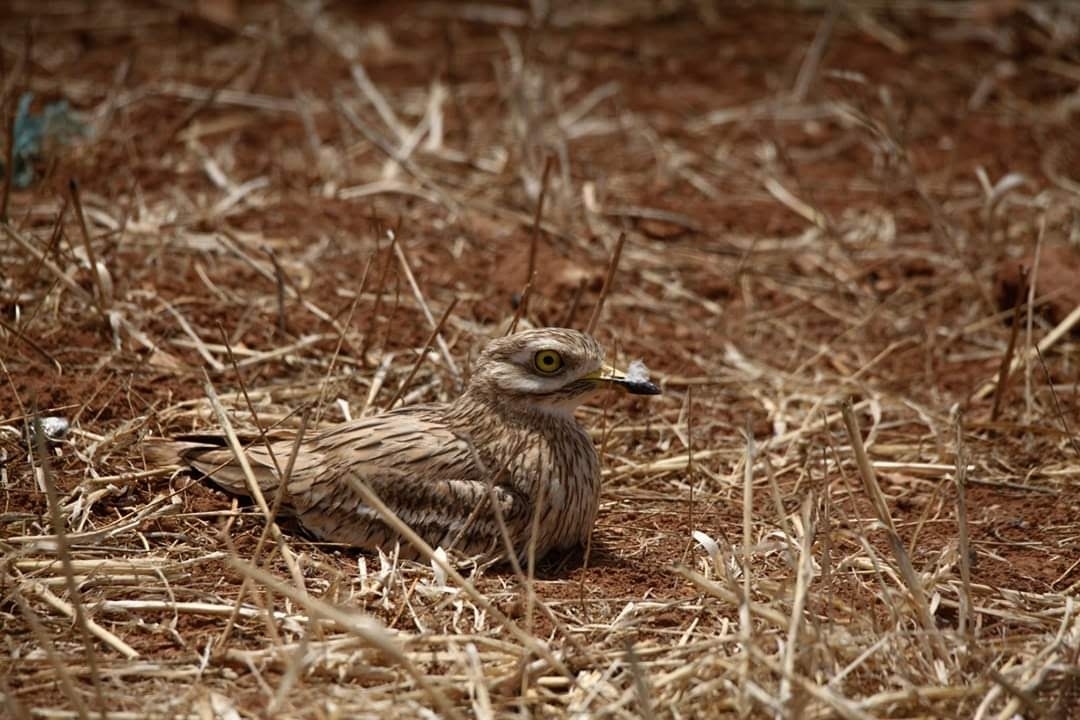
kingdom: Animalia
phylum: Chordata
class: Aves
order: Charadriiformes
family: Burhinidae
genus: Burhinus
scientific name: Burhinus oedicnemus
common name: Eurasian stone-curlew
